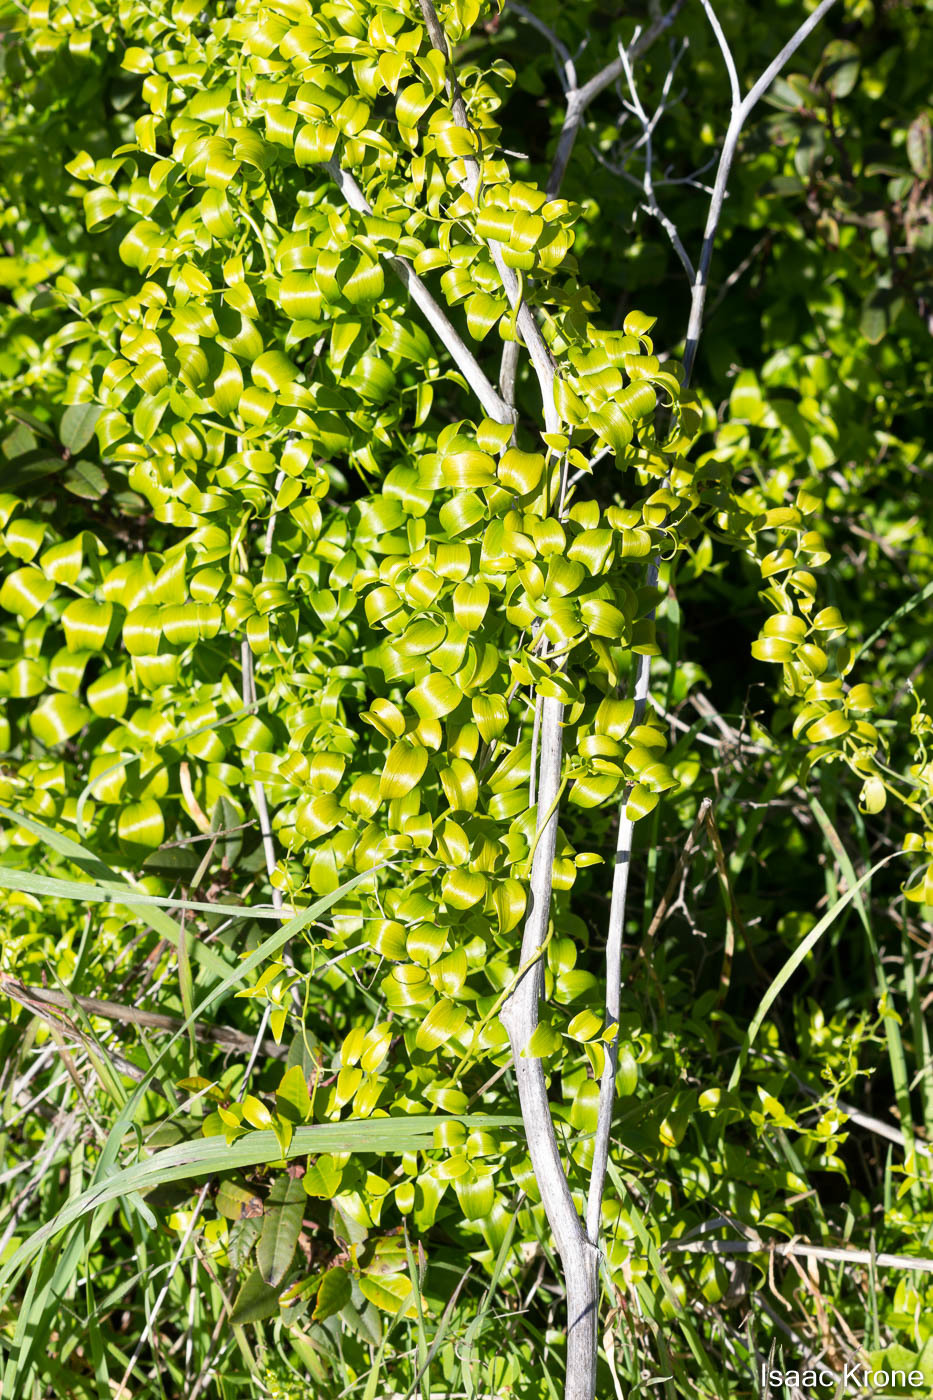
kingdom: Plantae
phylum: Tracheophyta
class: Liliopsida
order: Asparagales
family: Asparagaceae
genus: Asparagus
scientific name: Asparagus asparagoides
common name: African asparagus fern
